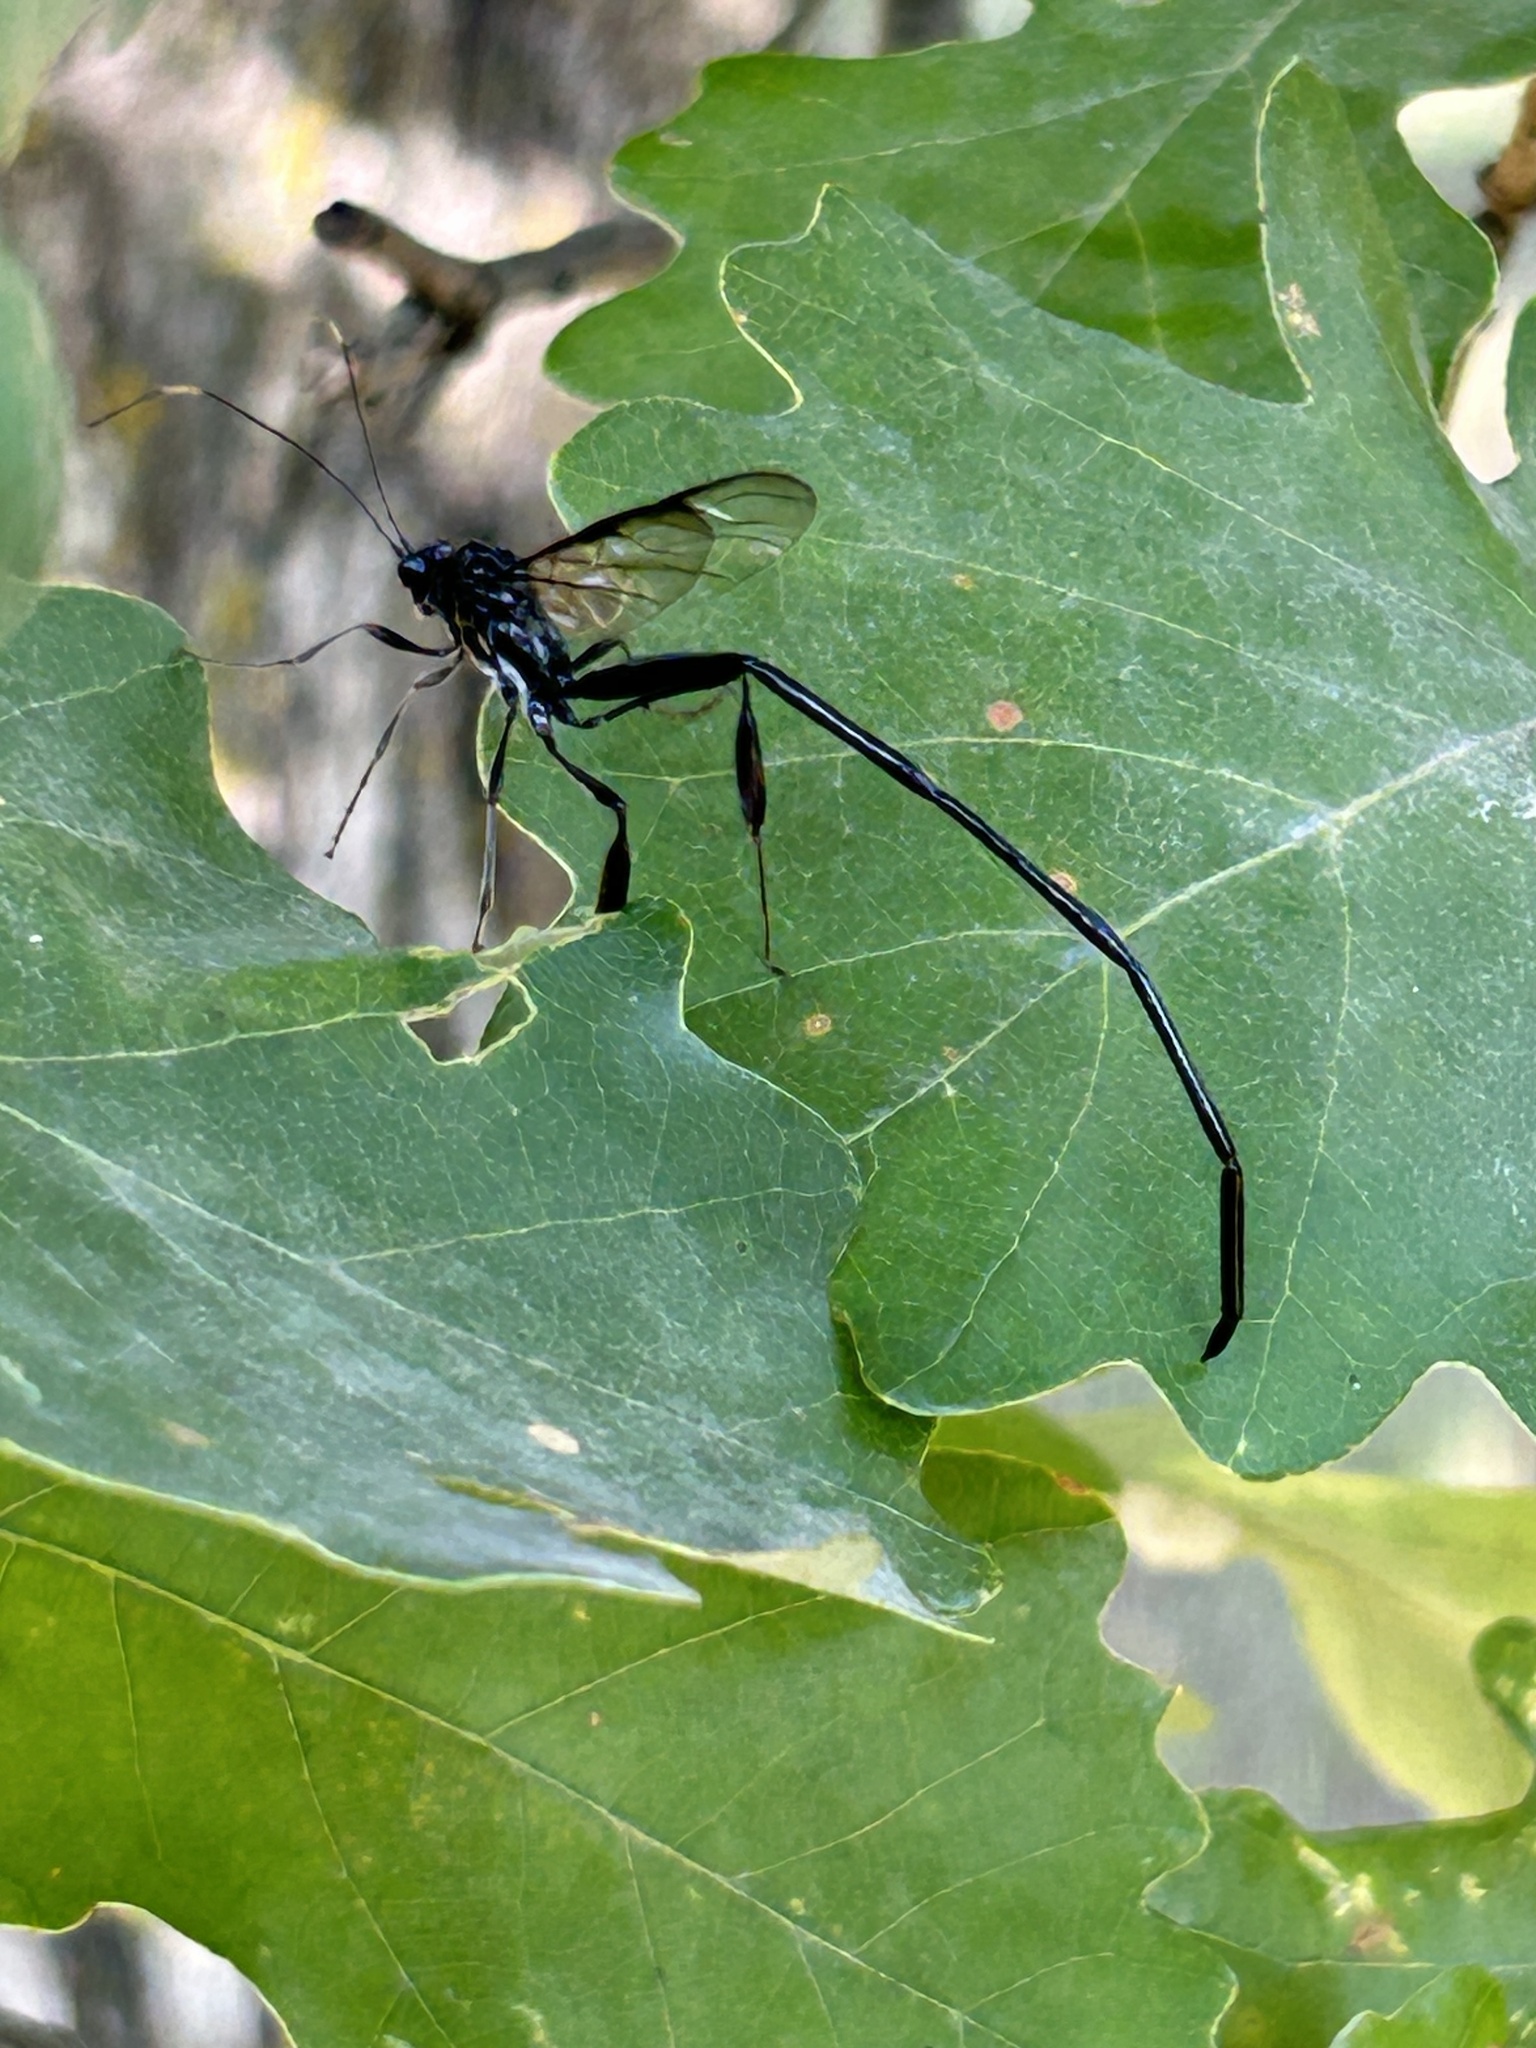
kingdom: Animalia
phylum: Arthropoda
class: Insecta
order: Hymenoptera
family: Pelecinidae
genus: Pelecinus
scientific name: Pelecinus polyturator
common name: American pelecinid wasp
